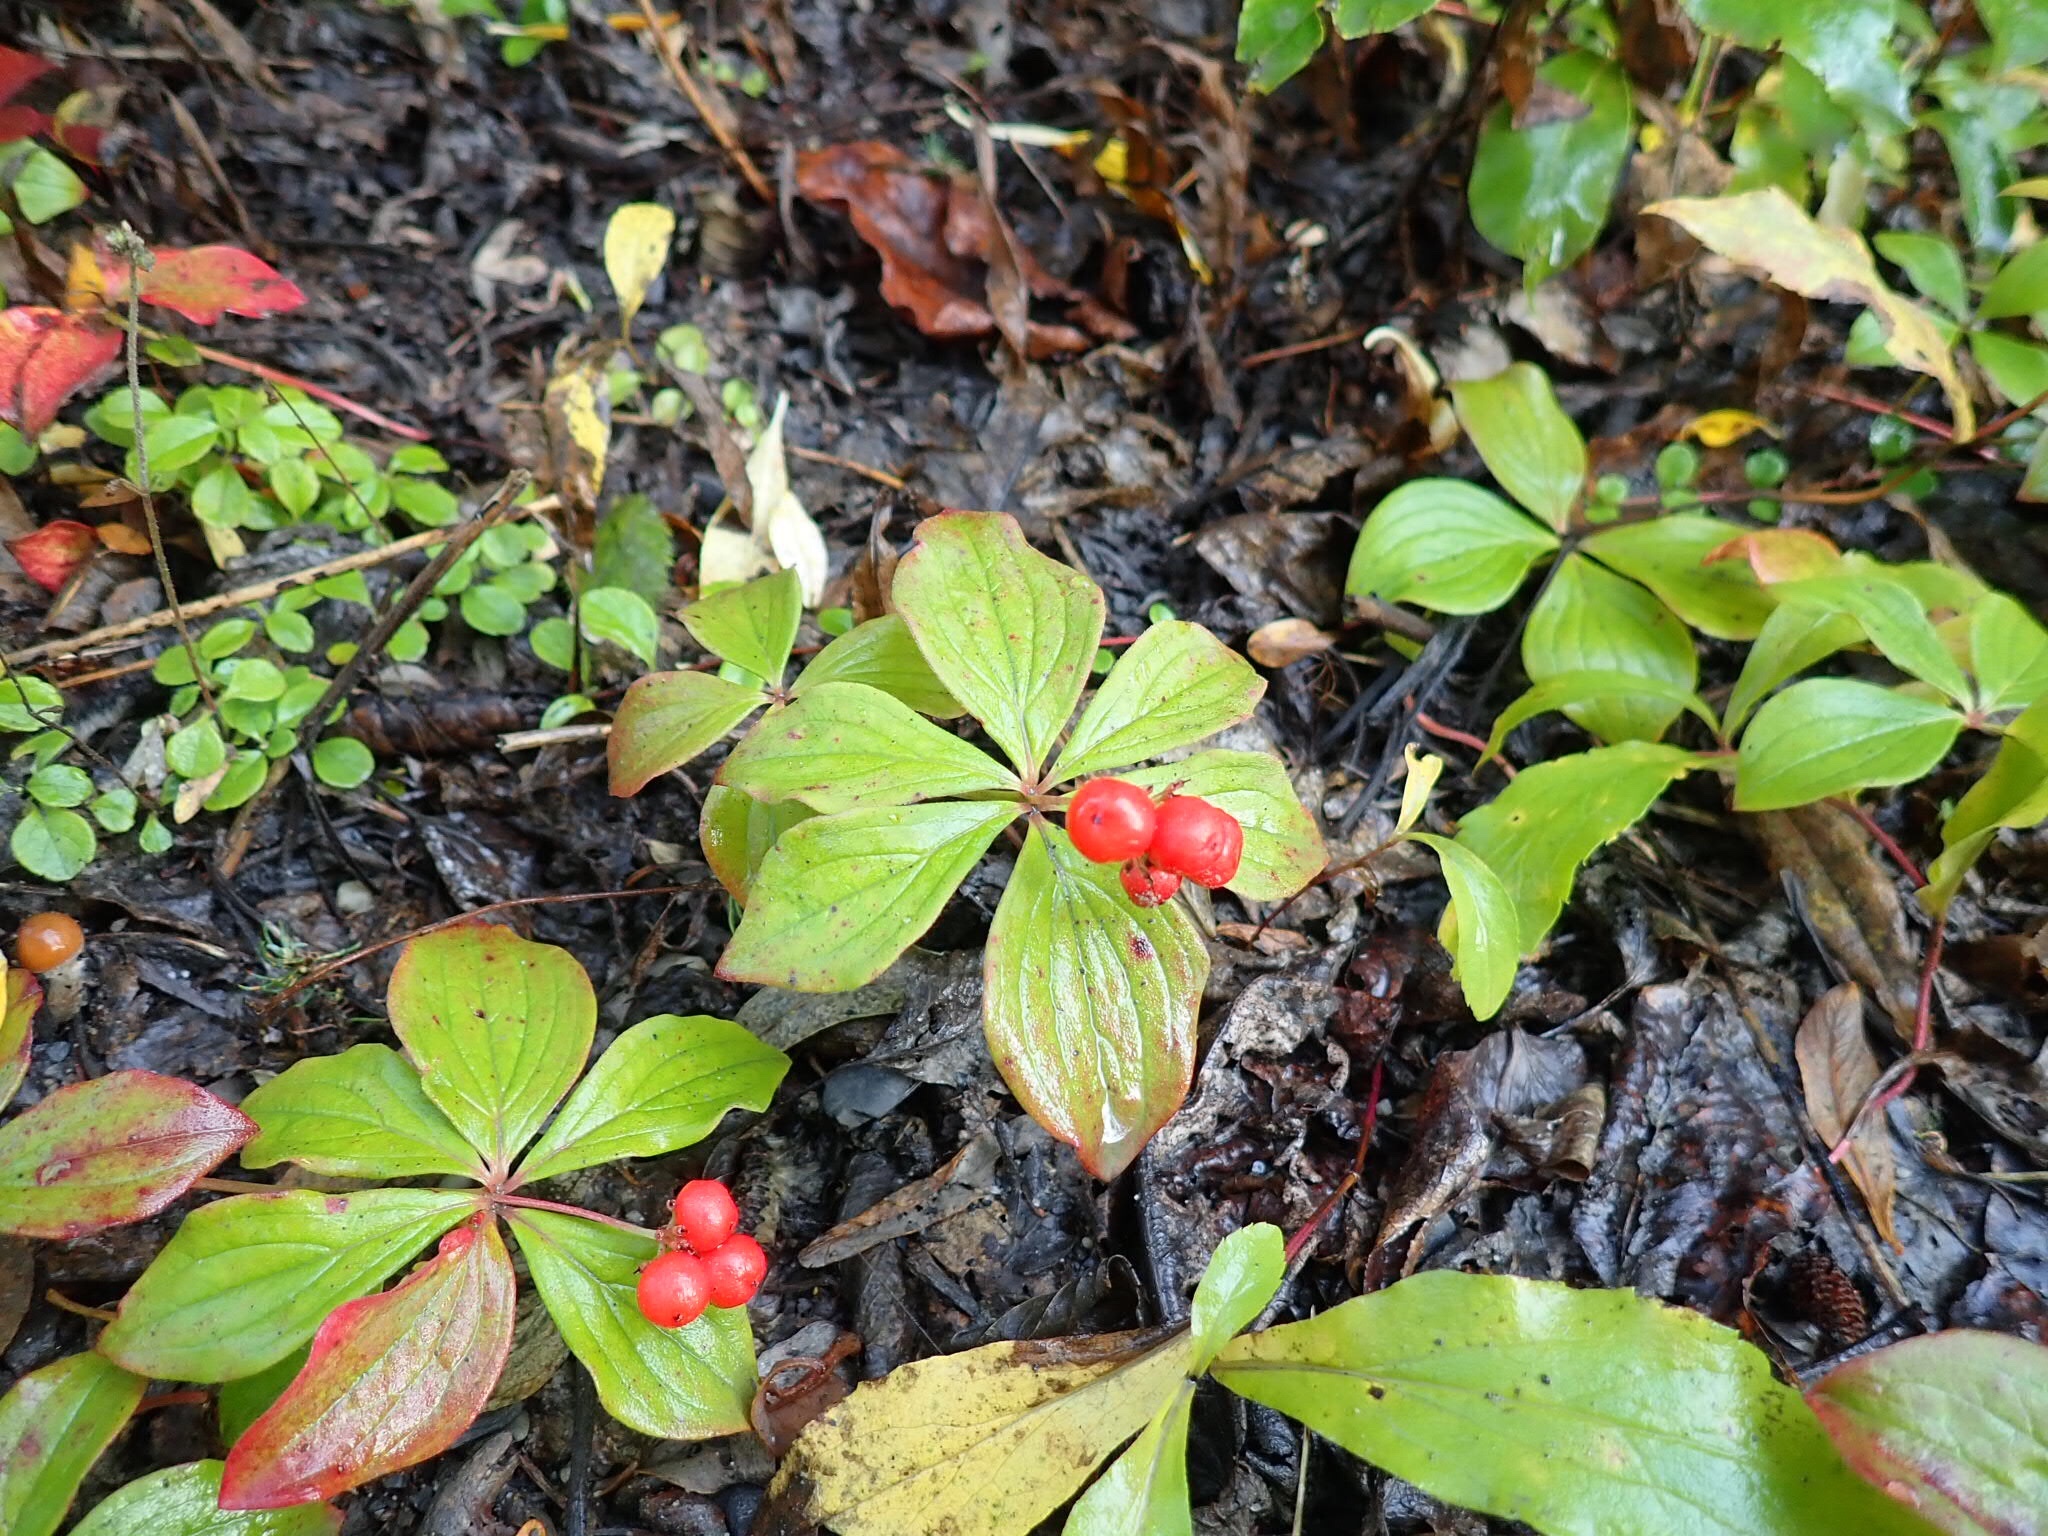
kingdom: Plantae
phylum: Tracheophyta
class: Magnoliopsida
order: Cornales
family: Cornaceae
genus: Cornus
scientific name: Cornus canadensis
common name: Creeping dogwood
